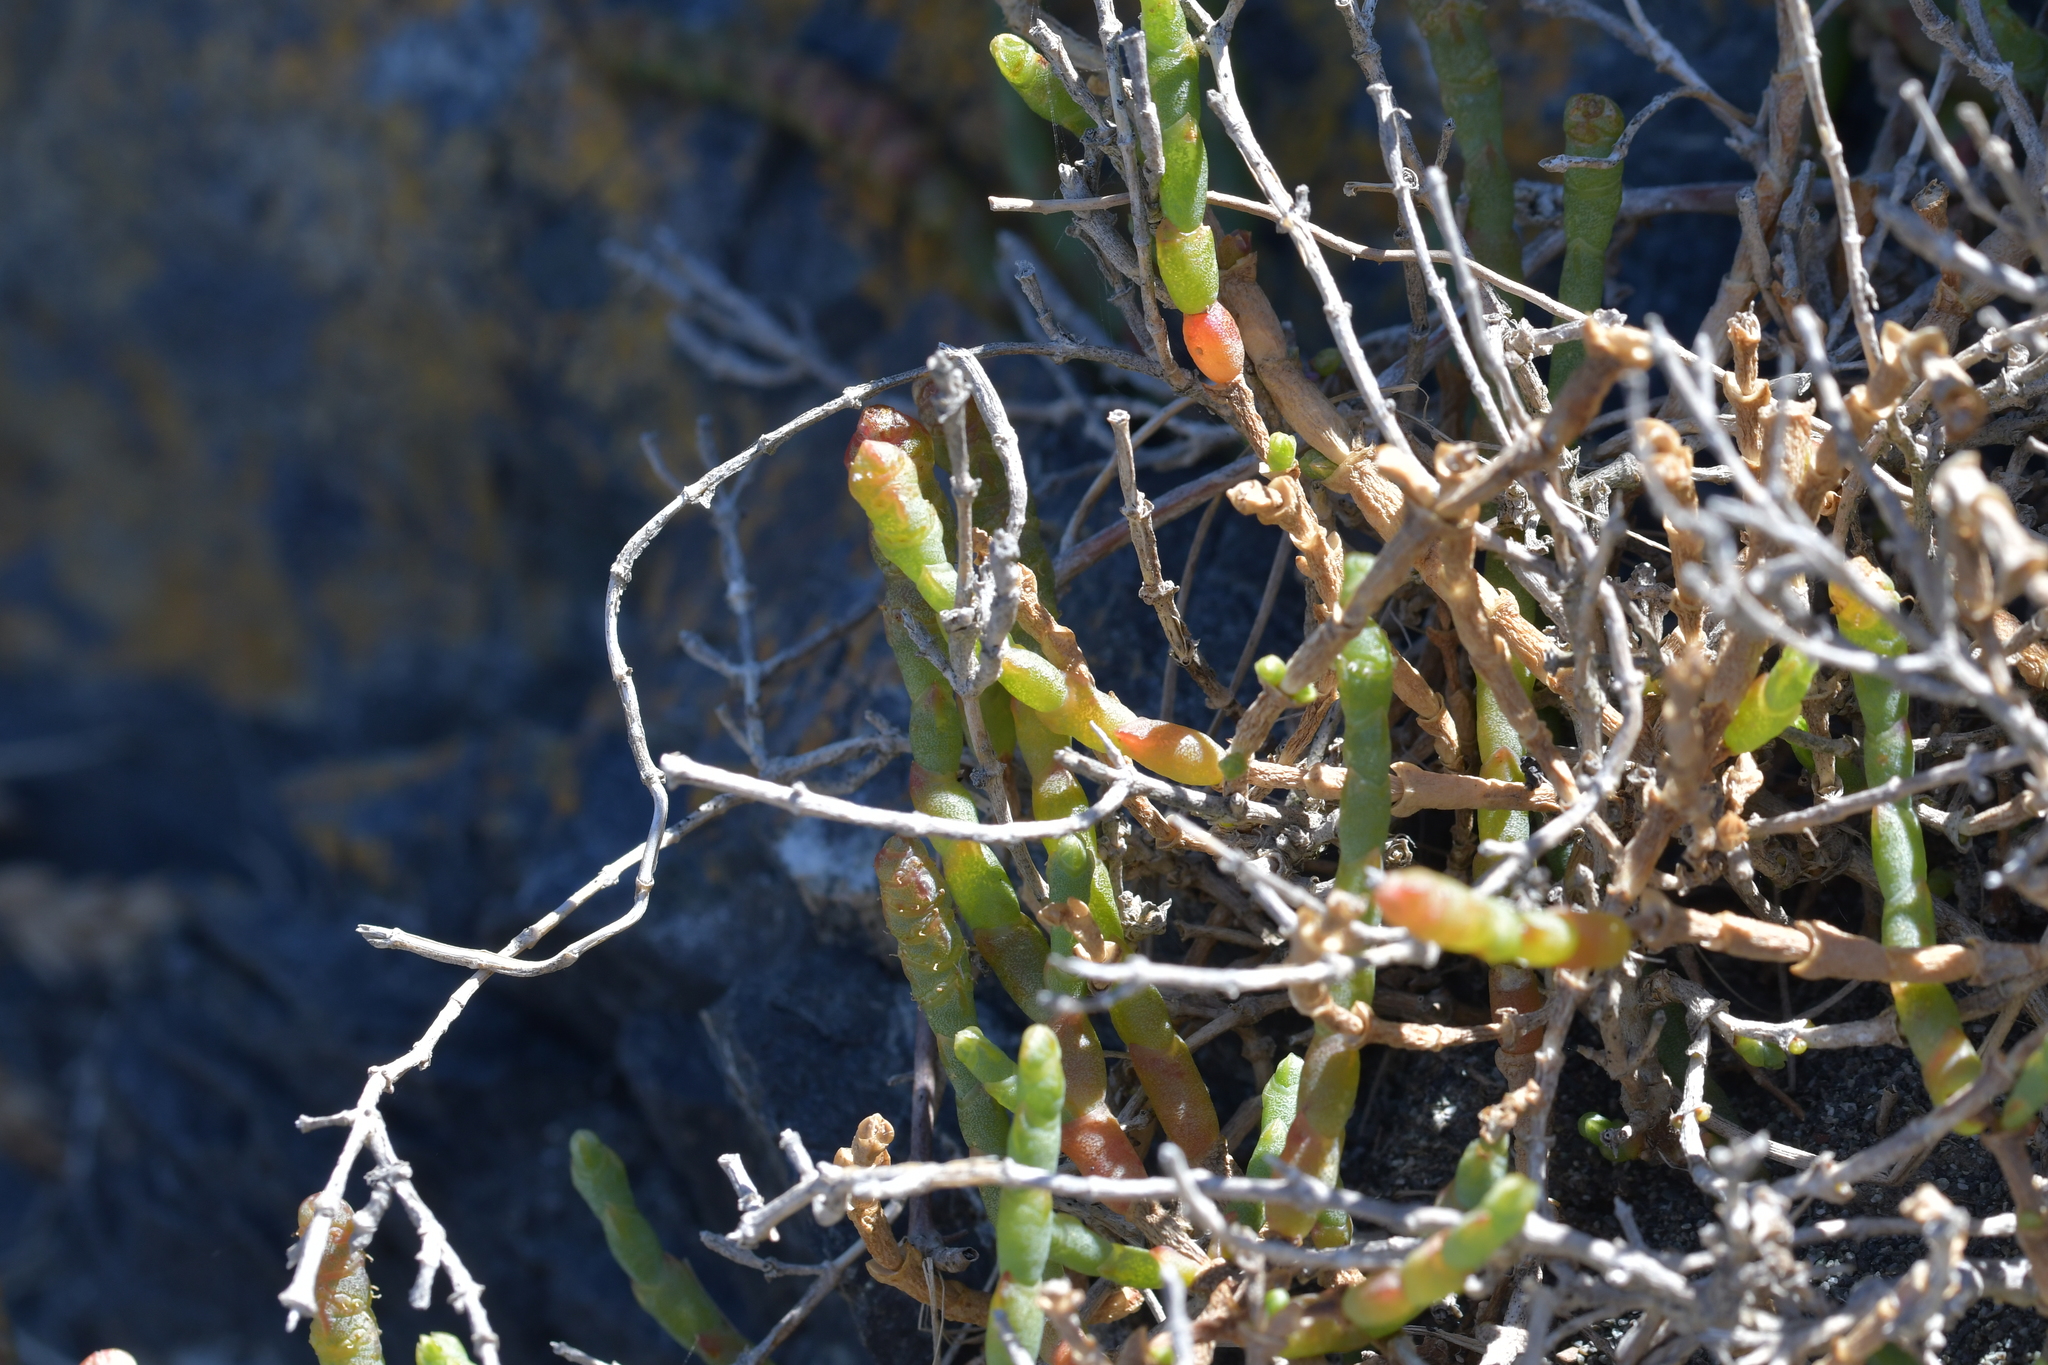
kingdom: Plantae
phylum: Tracheophyta
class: Magnoliopsida
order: Caryophyllales
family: Amaranthaceae
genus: Salicornia
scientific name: Salicornia quinqueflora
